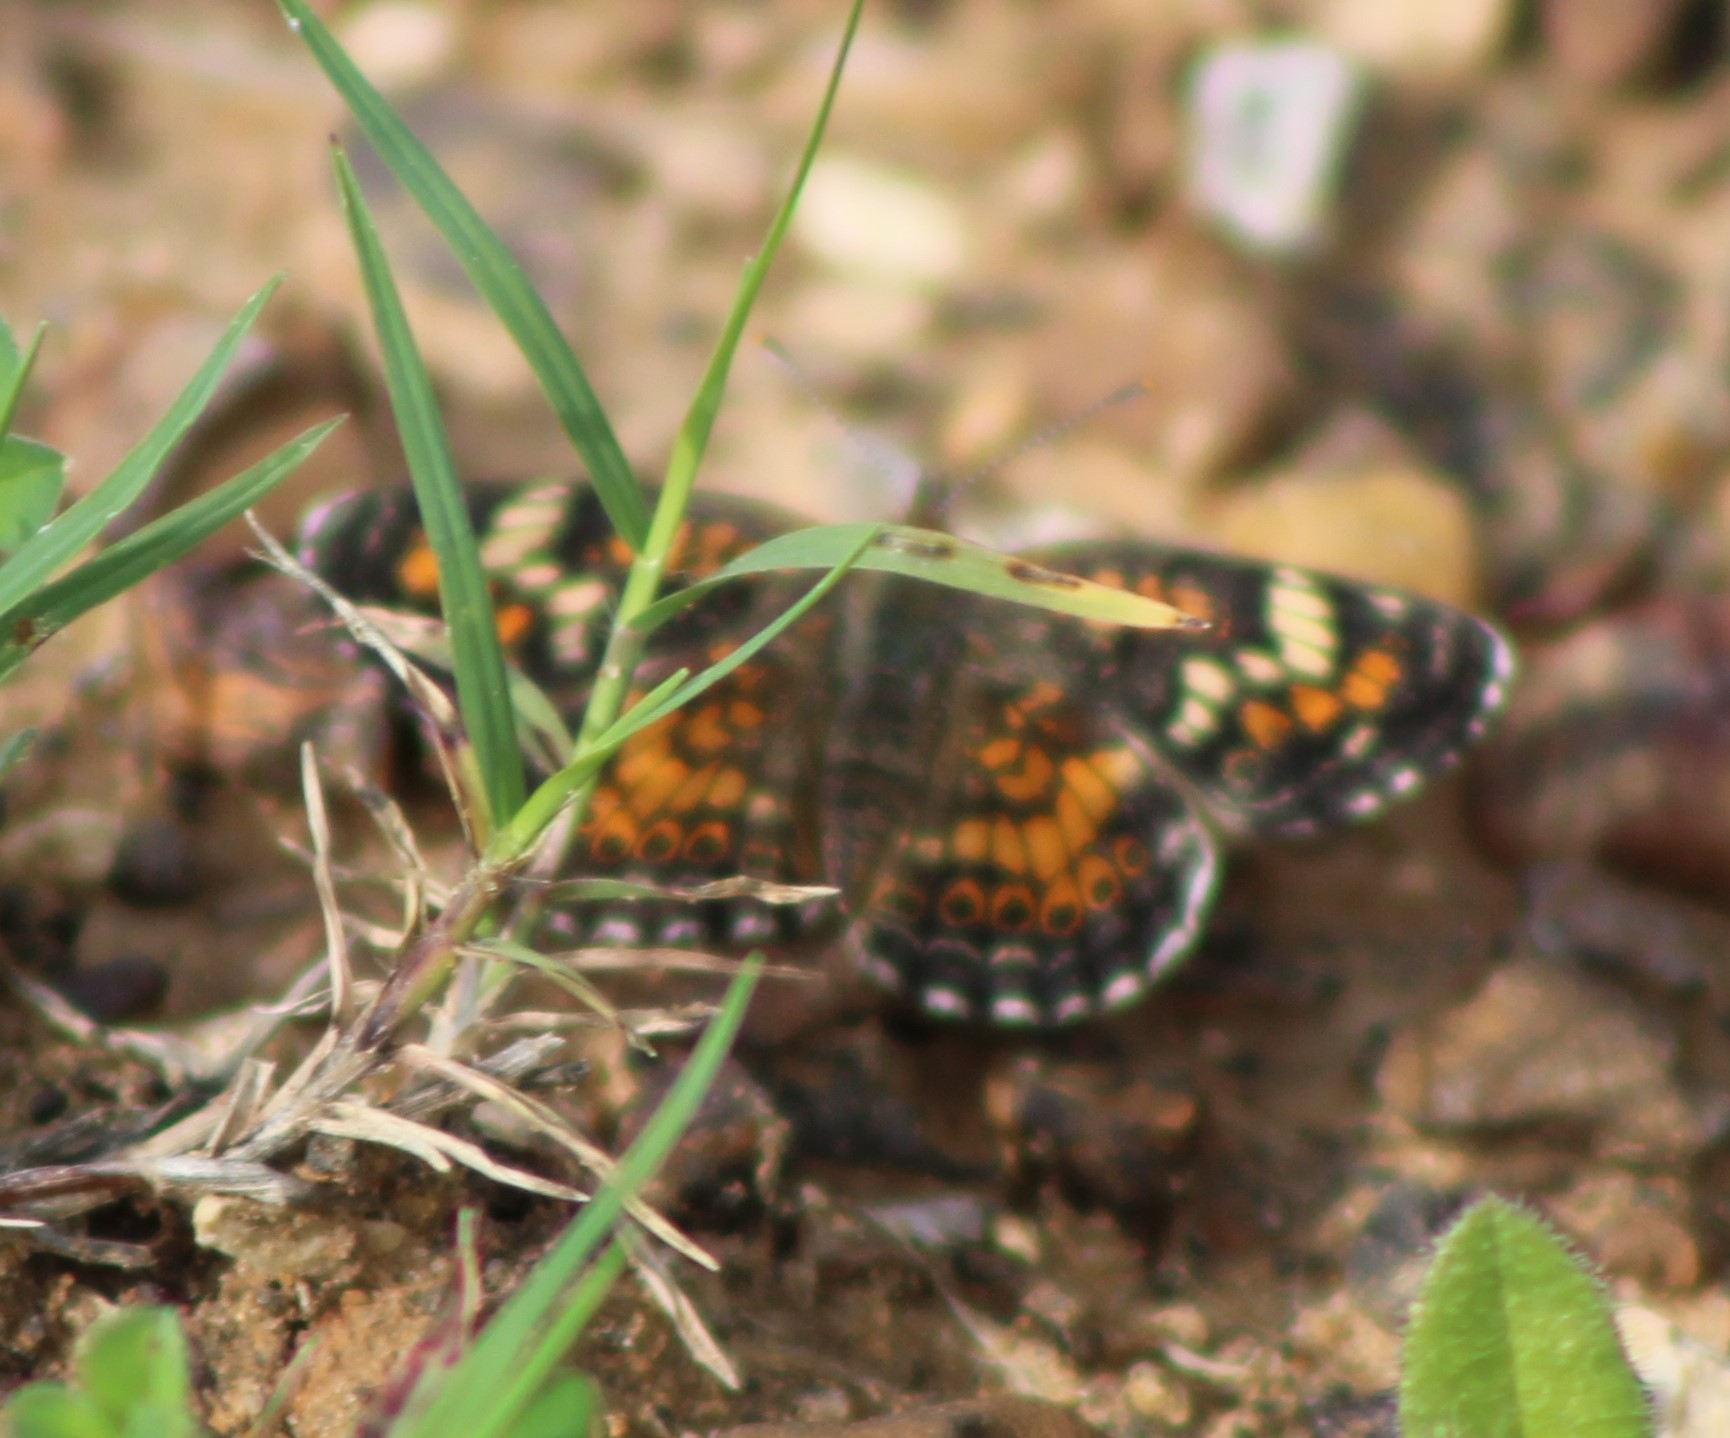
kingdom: Animalia
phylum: Arthropoda
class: Insecta
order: Lepidoptera
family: Nymphalidae
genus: Phyciodes
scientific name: Phyciodes phaon
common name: Phaon crescent
